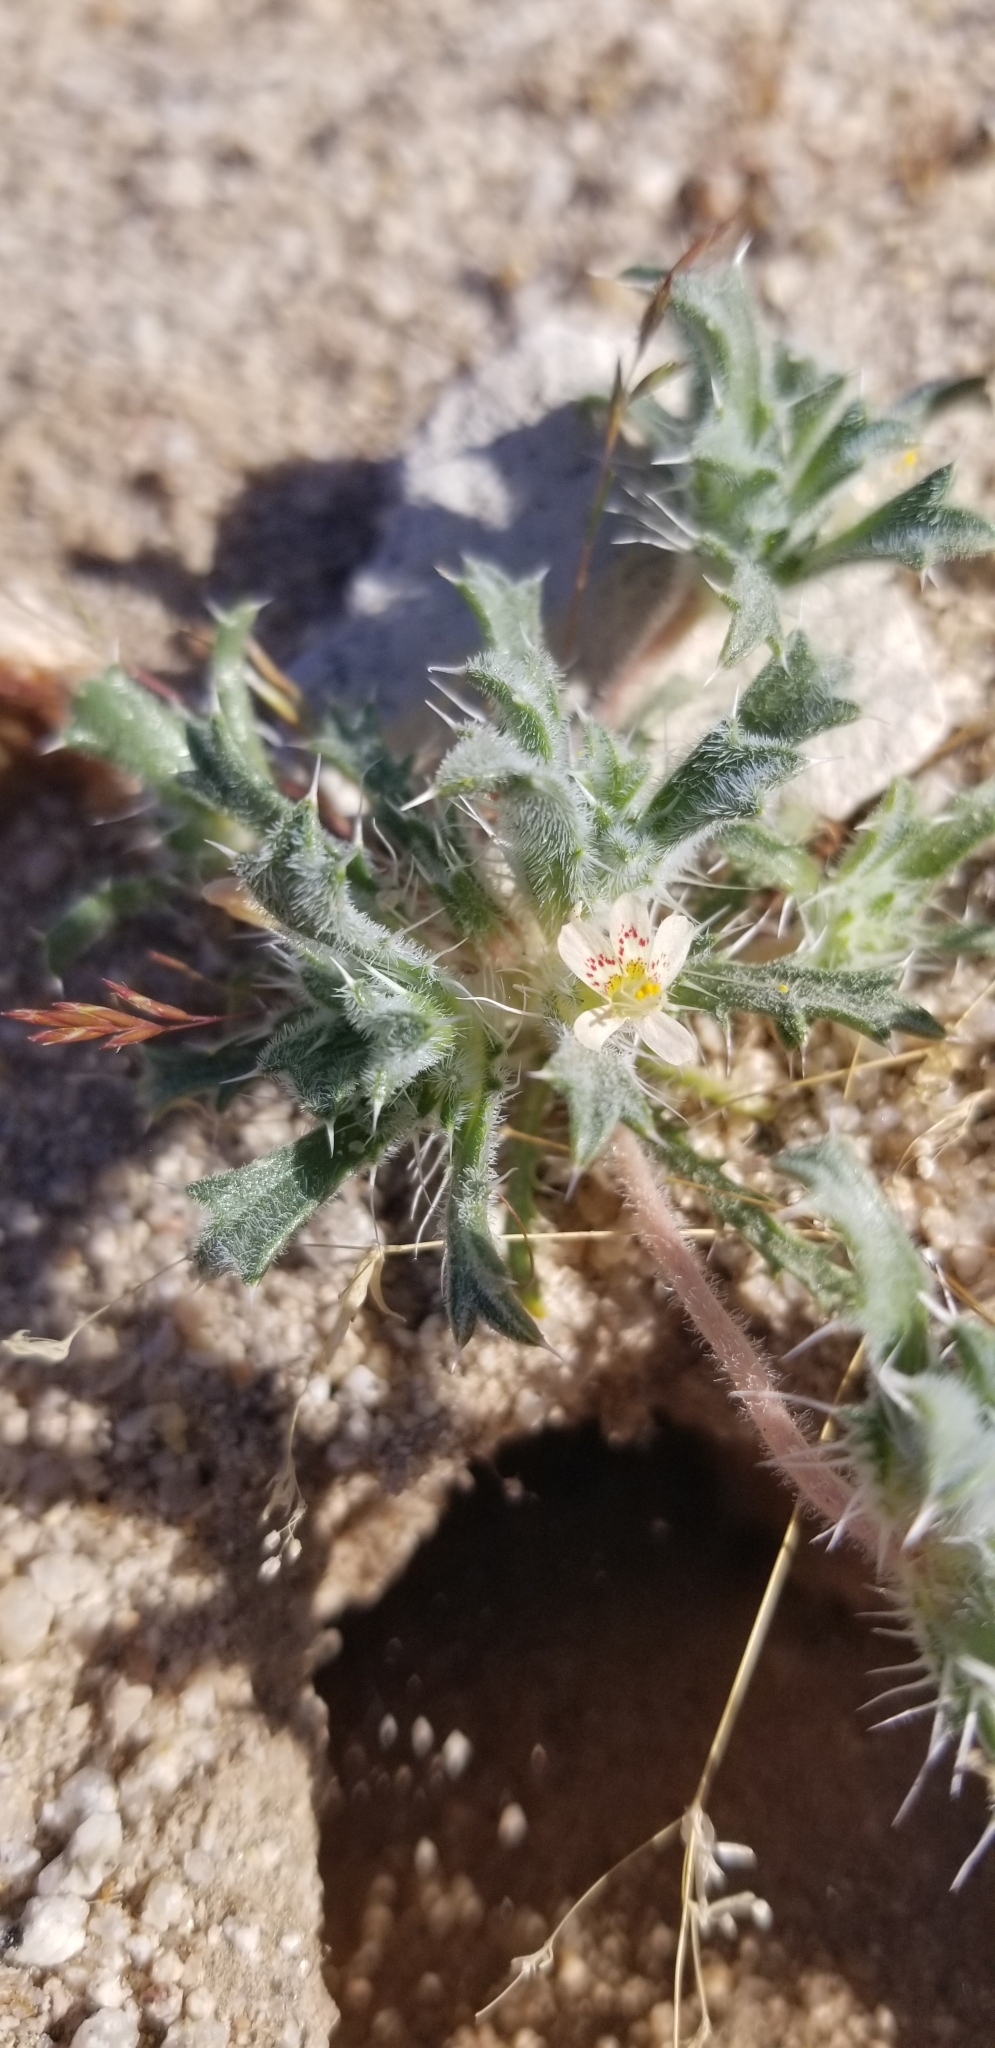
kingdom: Plantae
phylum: Tracheophyta
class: Magnoliopsida
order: Ericales
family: Polemoniaceae
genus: Loeseliastrum
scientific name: Loeseliastrum schottii
